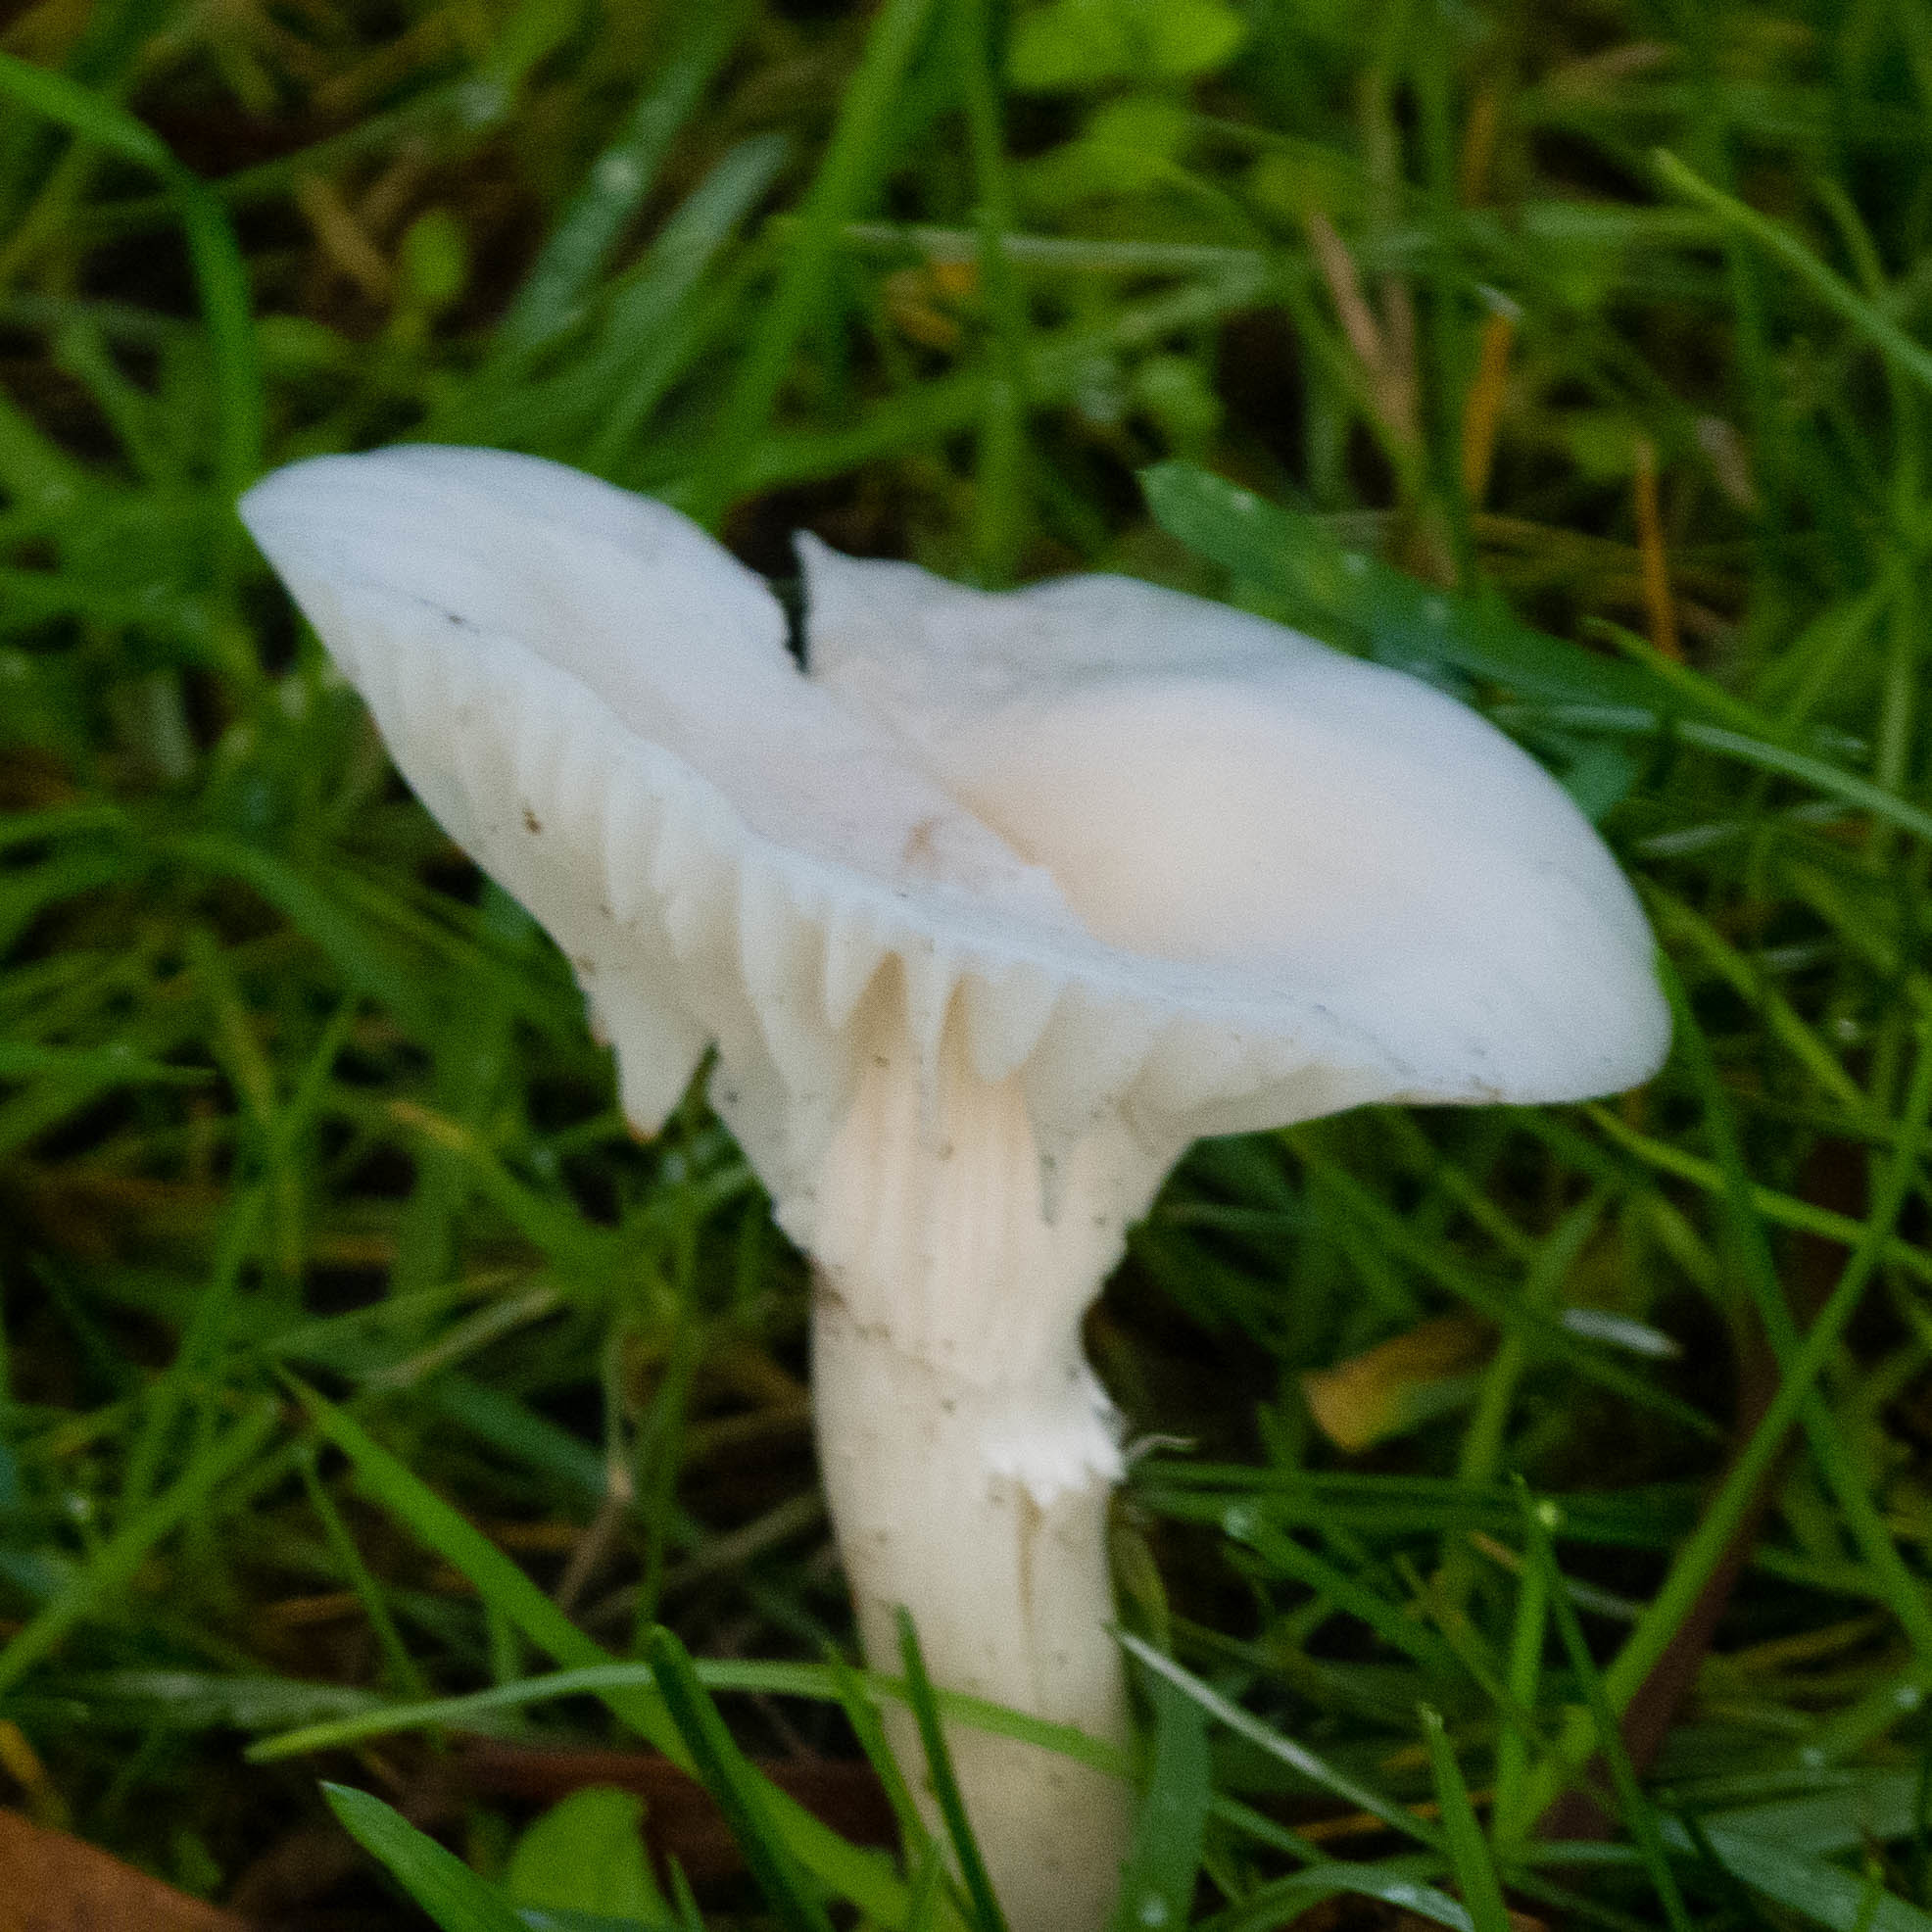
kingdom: Fungi
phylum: Basidiomycota
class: Agaricomycetes
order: Agaricales
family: Hygrophoraceae
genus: Cuphophyllus
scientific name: Cuphophyllus virgineus
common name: Snowy waxcap
